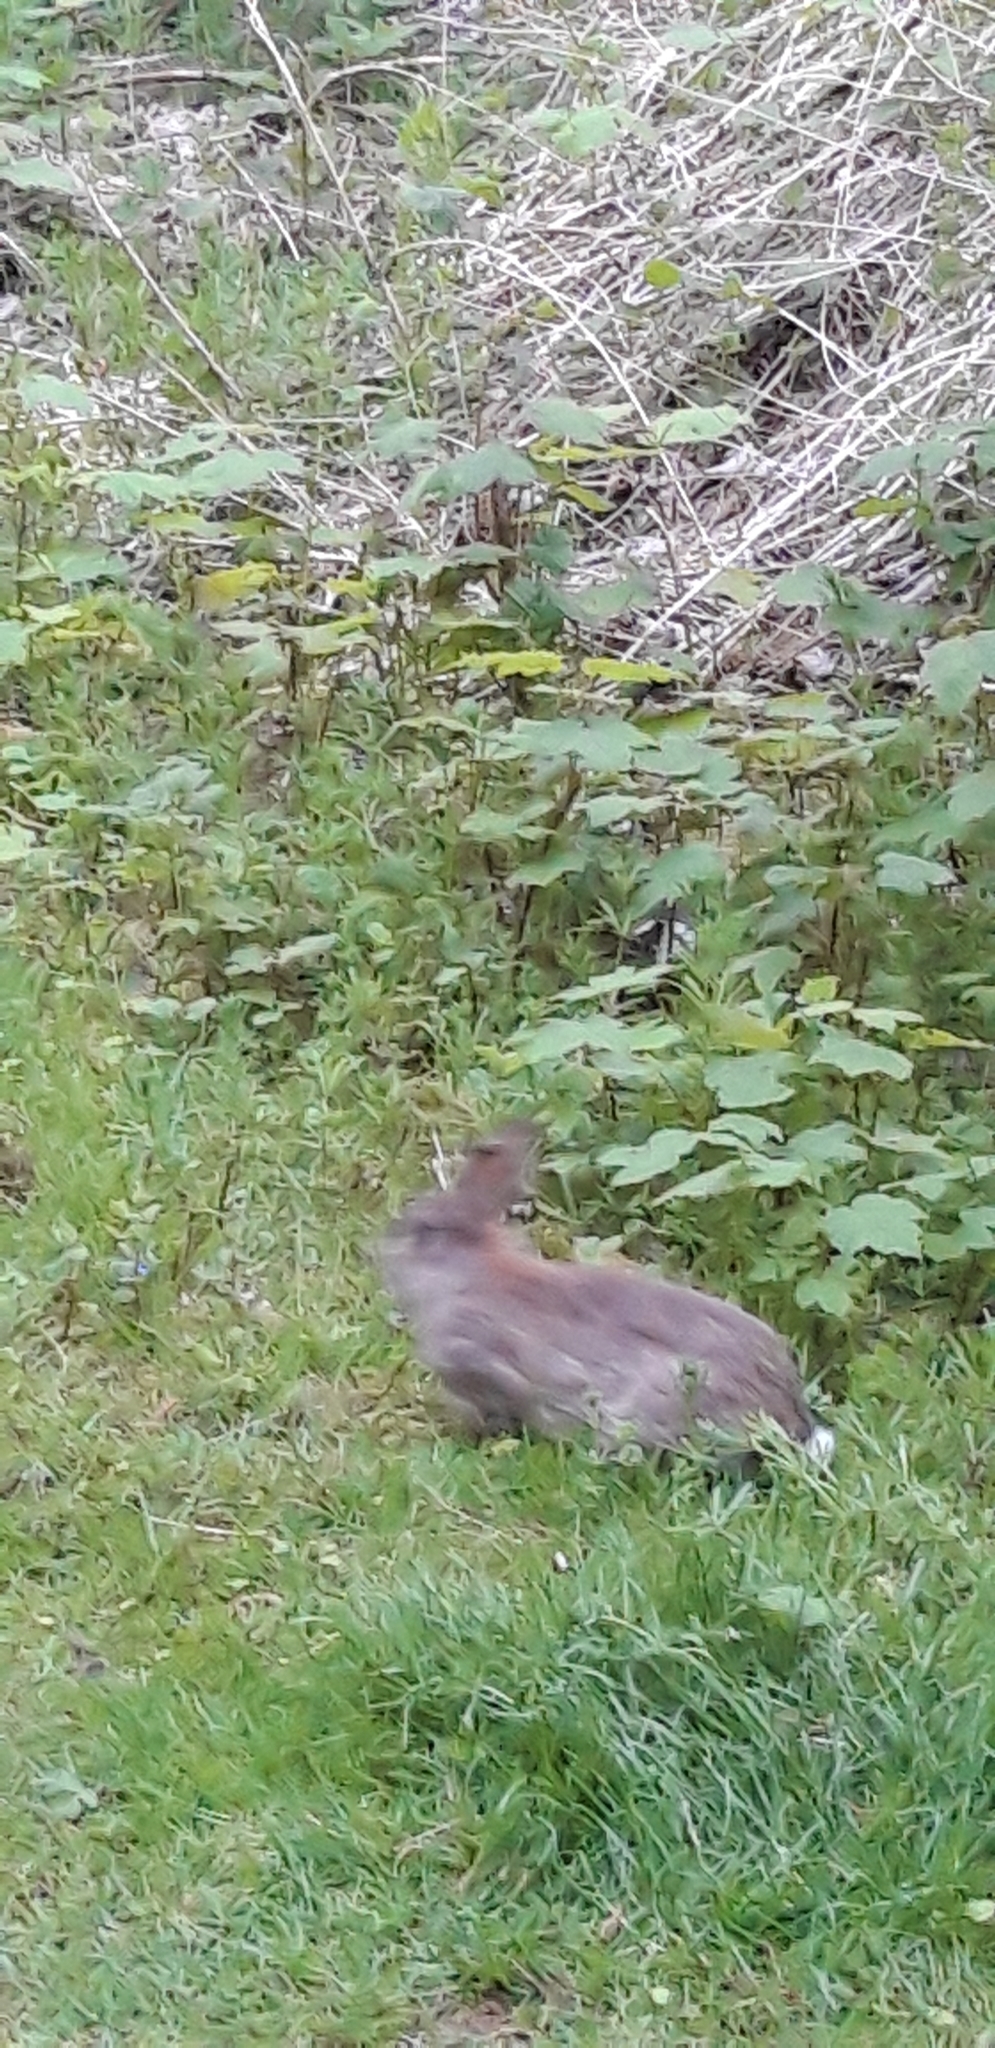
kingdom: Animalia
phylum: Chordata
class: Mammalia
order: Lagomorpha
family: Leporidae
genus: Oryctolagus
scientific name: Oryctolagus cuniculus
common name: European rabbit
